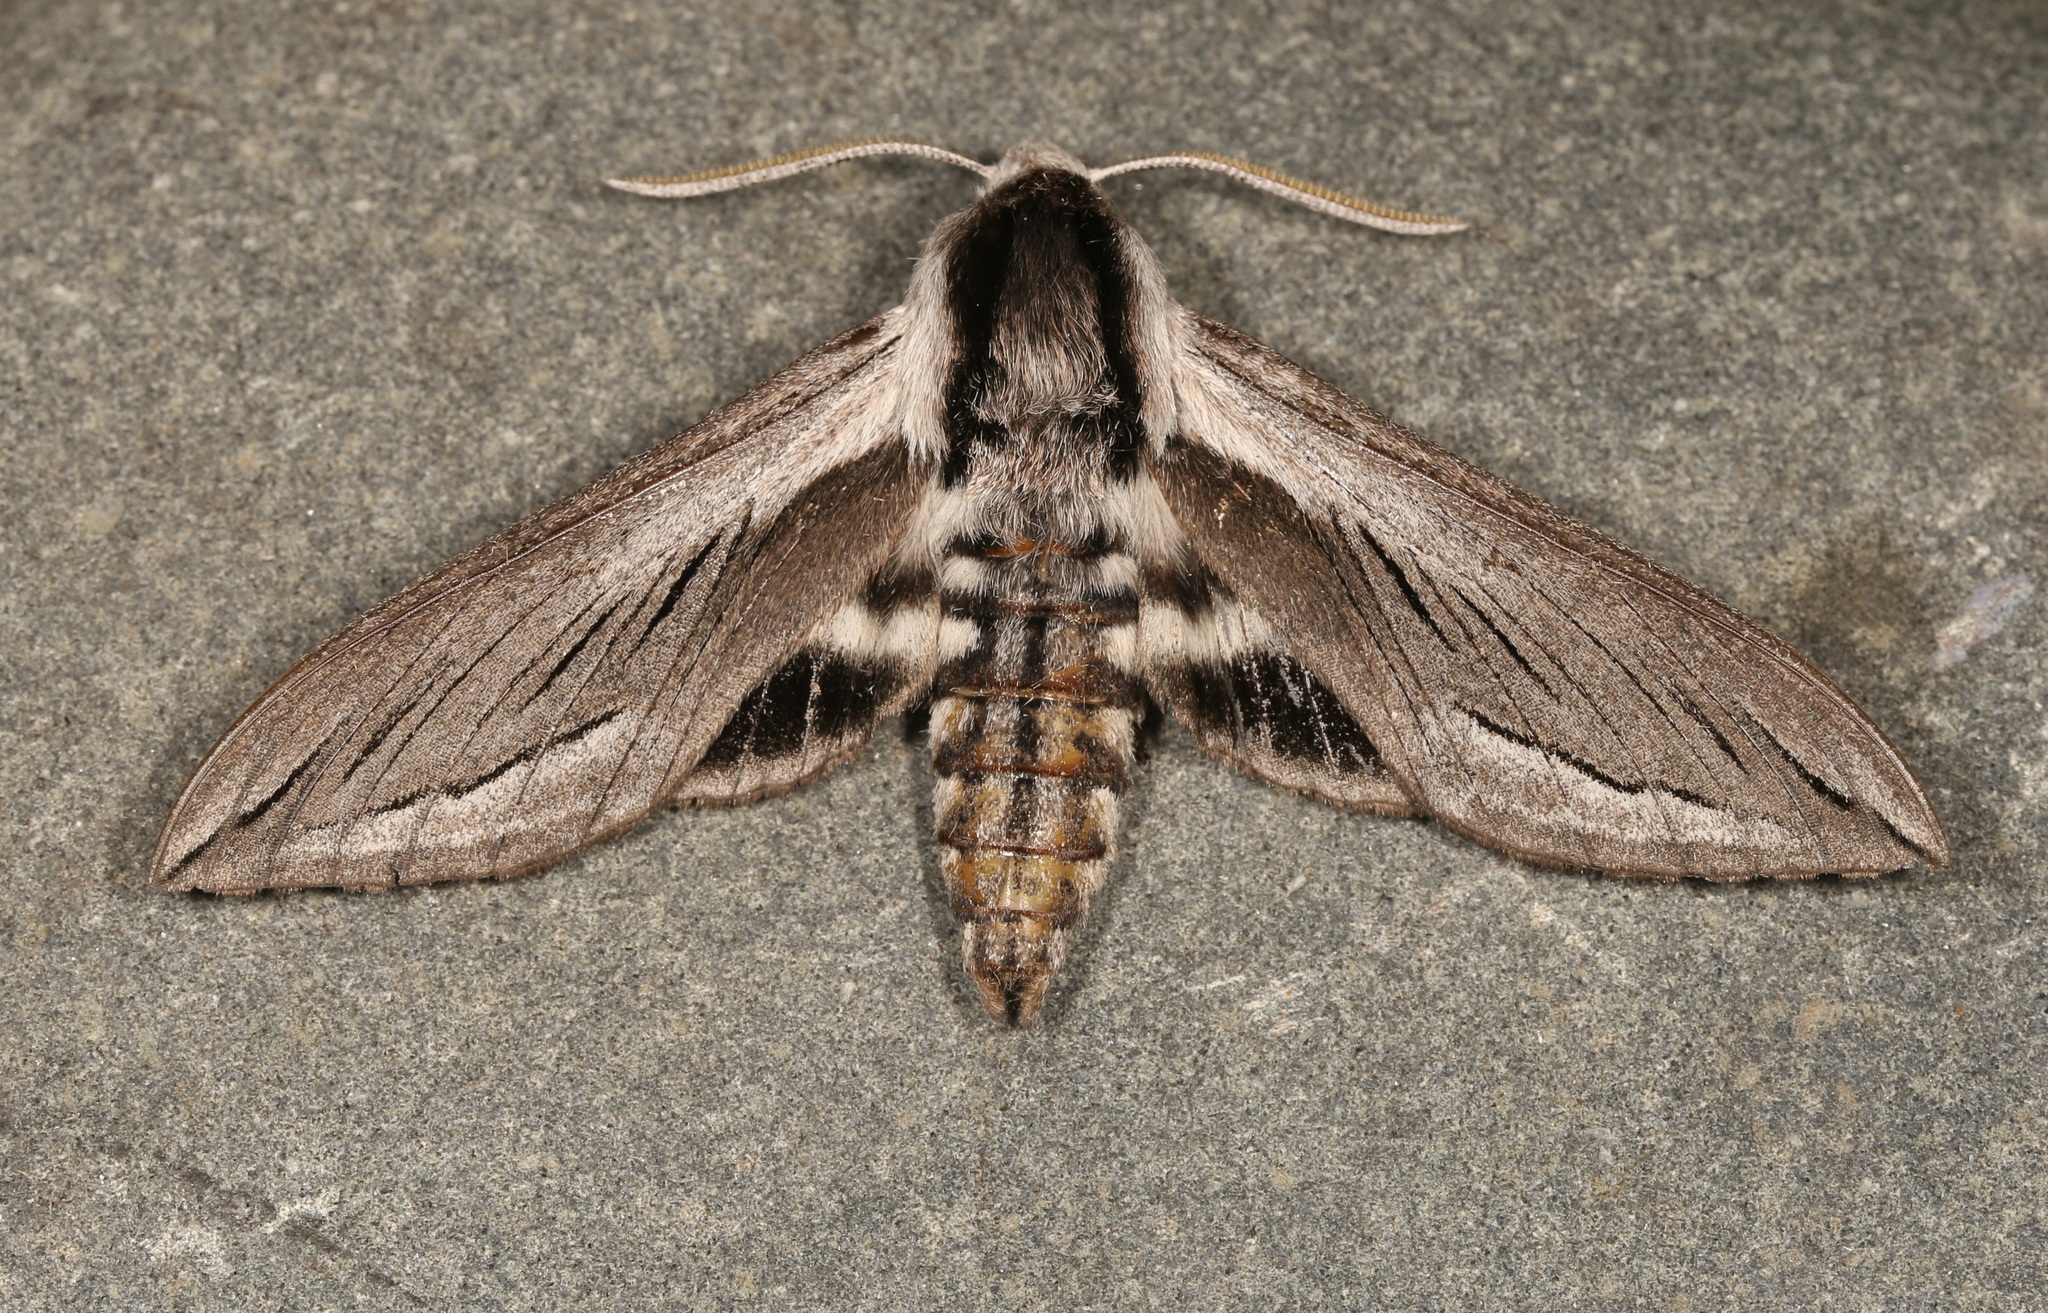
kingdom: Animalia
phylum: Arthropoda
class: Insecta
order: Lepidoptera
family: Sphingidae
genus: Sphinx
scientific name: Sphinx vashti
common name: Snowberry sphinx
